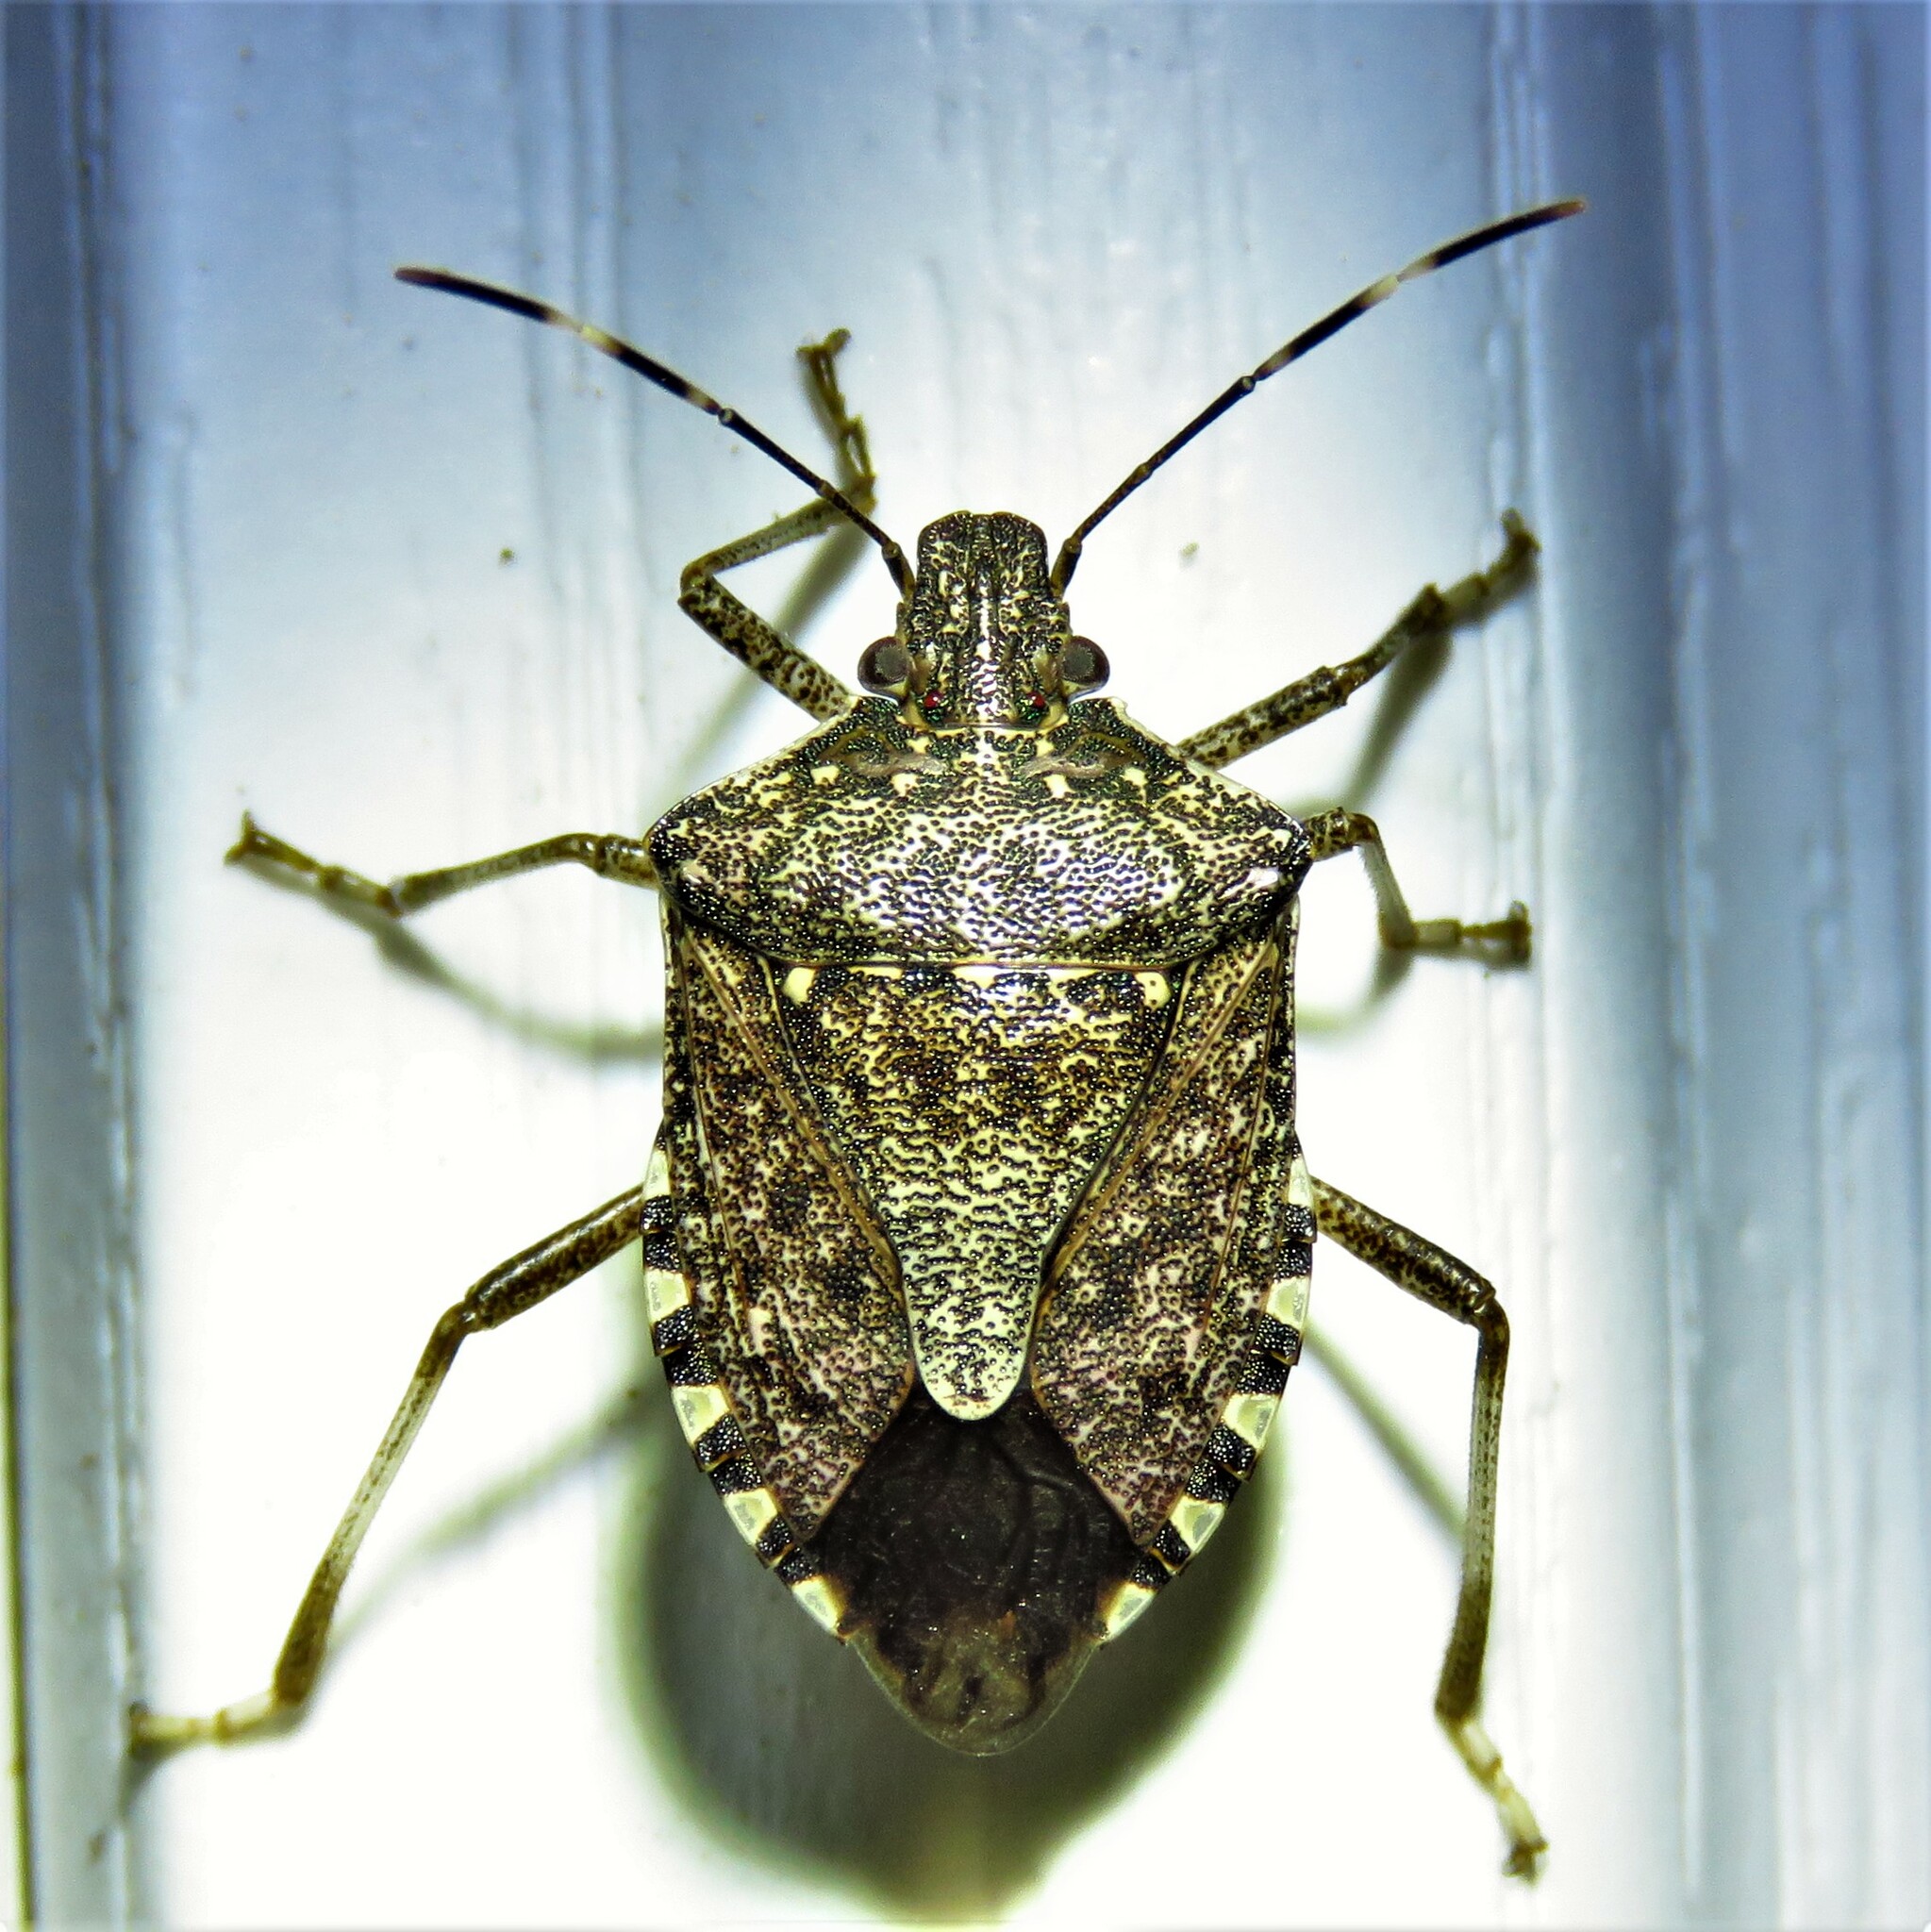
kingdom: Animalia
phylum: Arthropoda
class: Insecta
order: Hemiptera
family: Pentatomidae
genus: Halyomorpha
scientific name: Halyomorpha halys
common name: Brown marmorated stink bug
